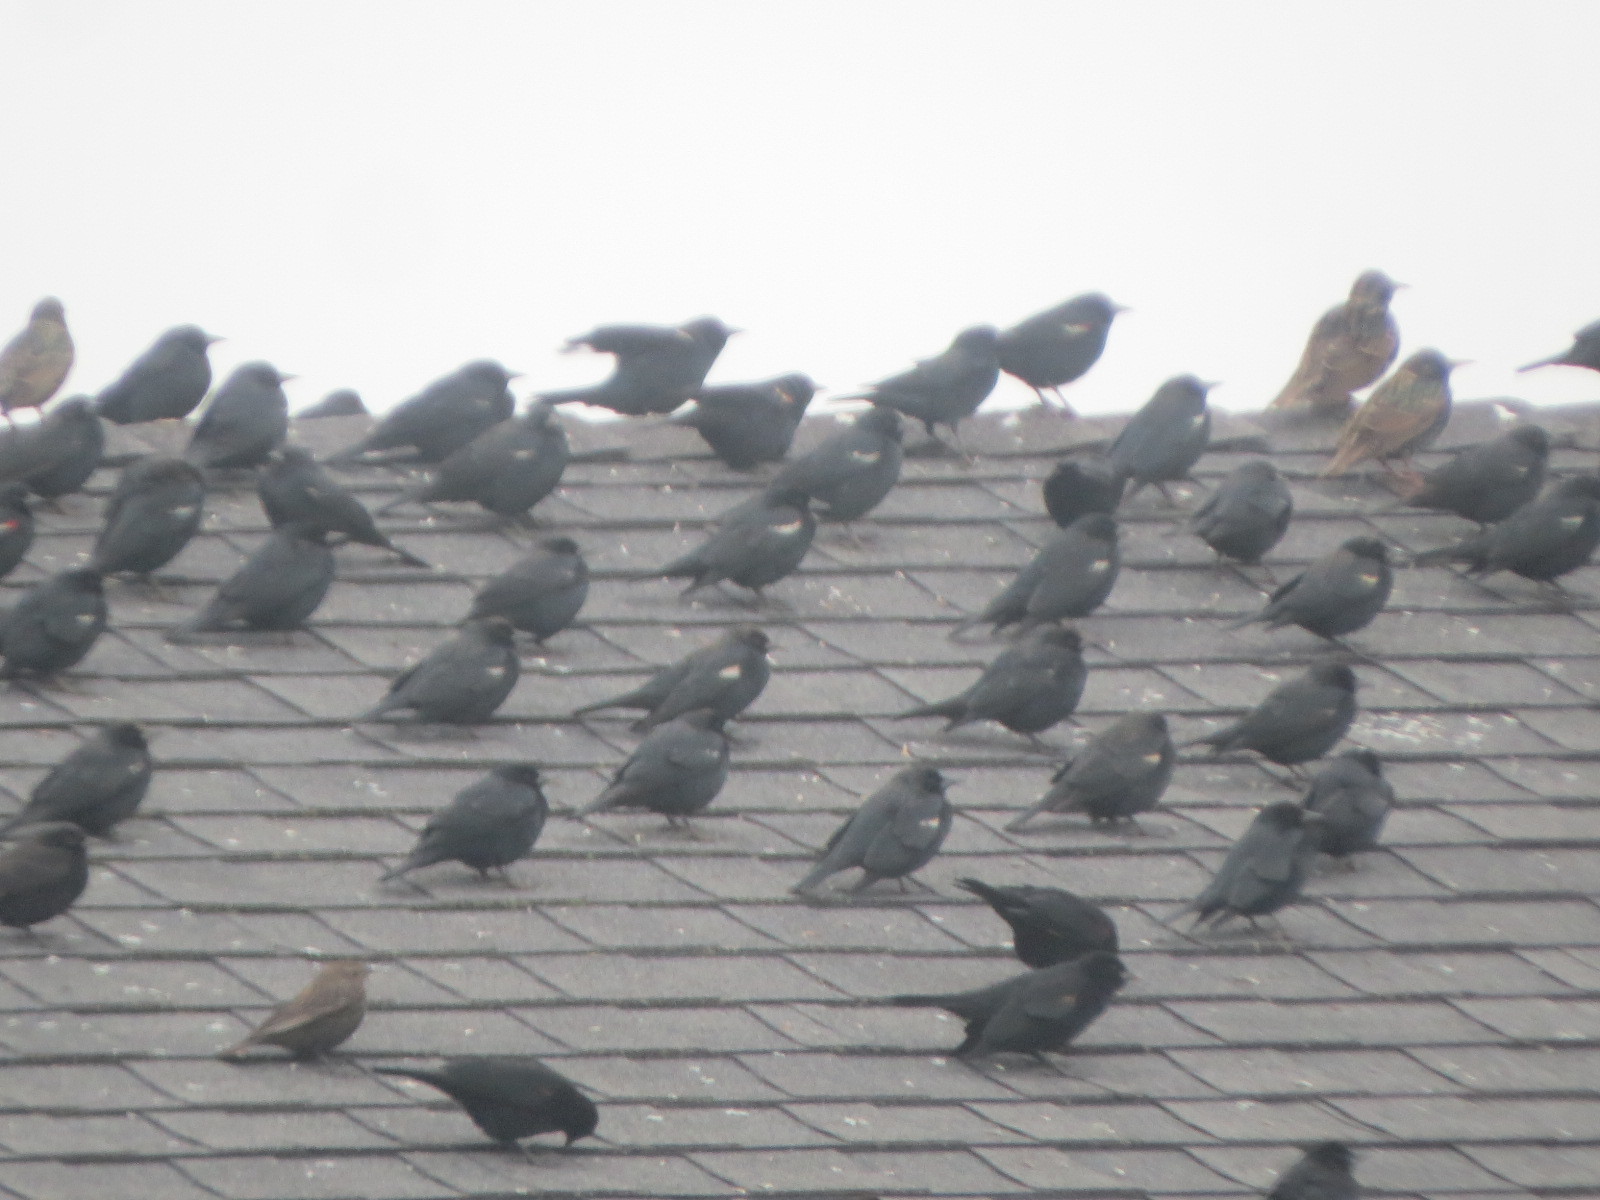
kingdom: Animalia
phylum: Chordata
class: Aves
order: Passeriformes
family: Icteridae
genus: Agelaius
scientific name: Agelaius tricolor
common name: Tricolored blackbird
